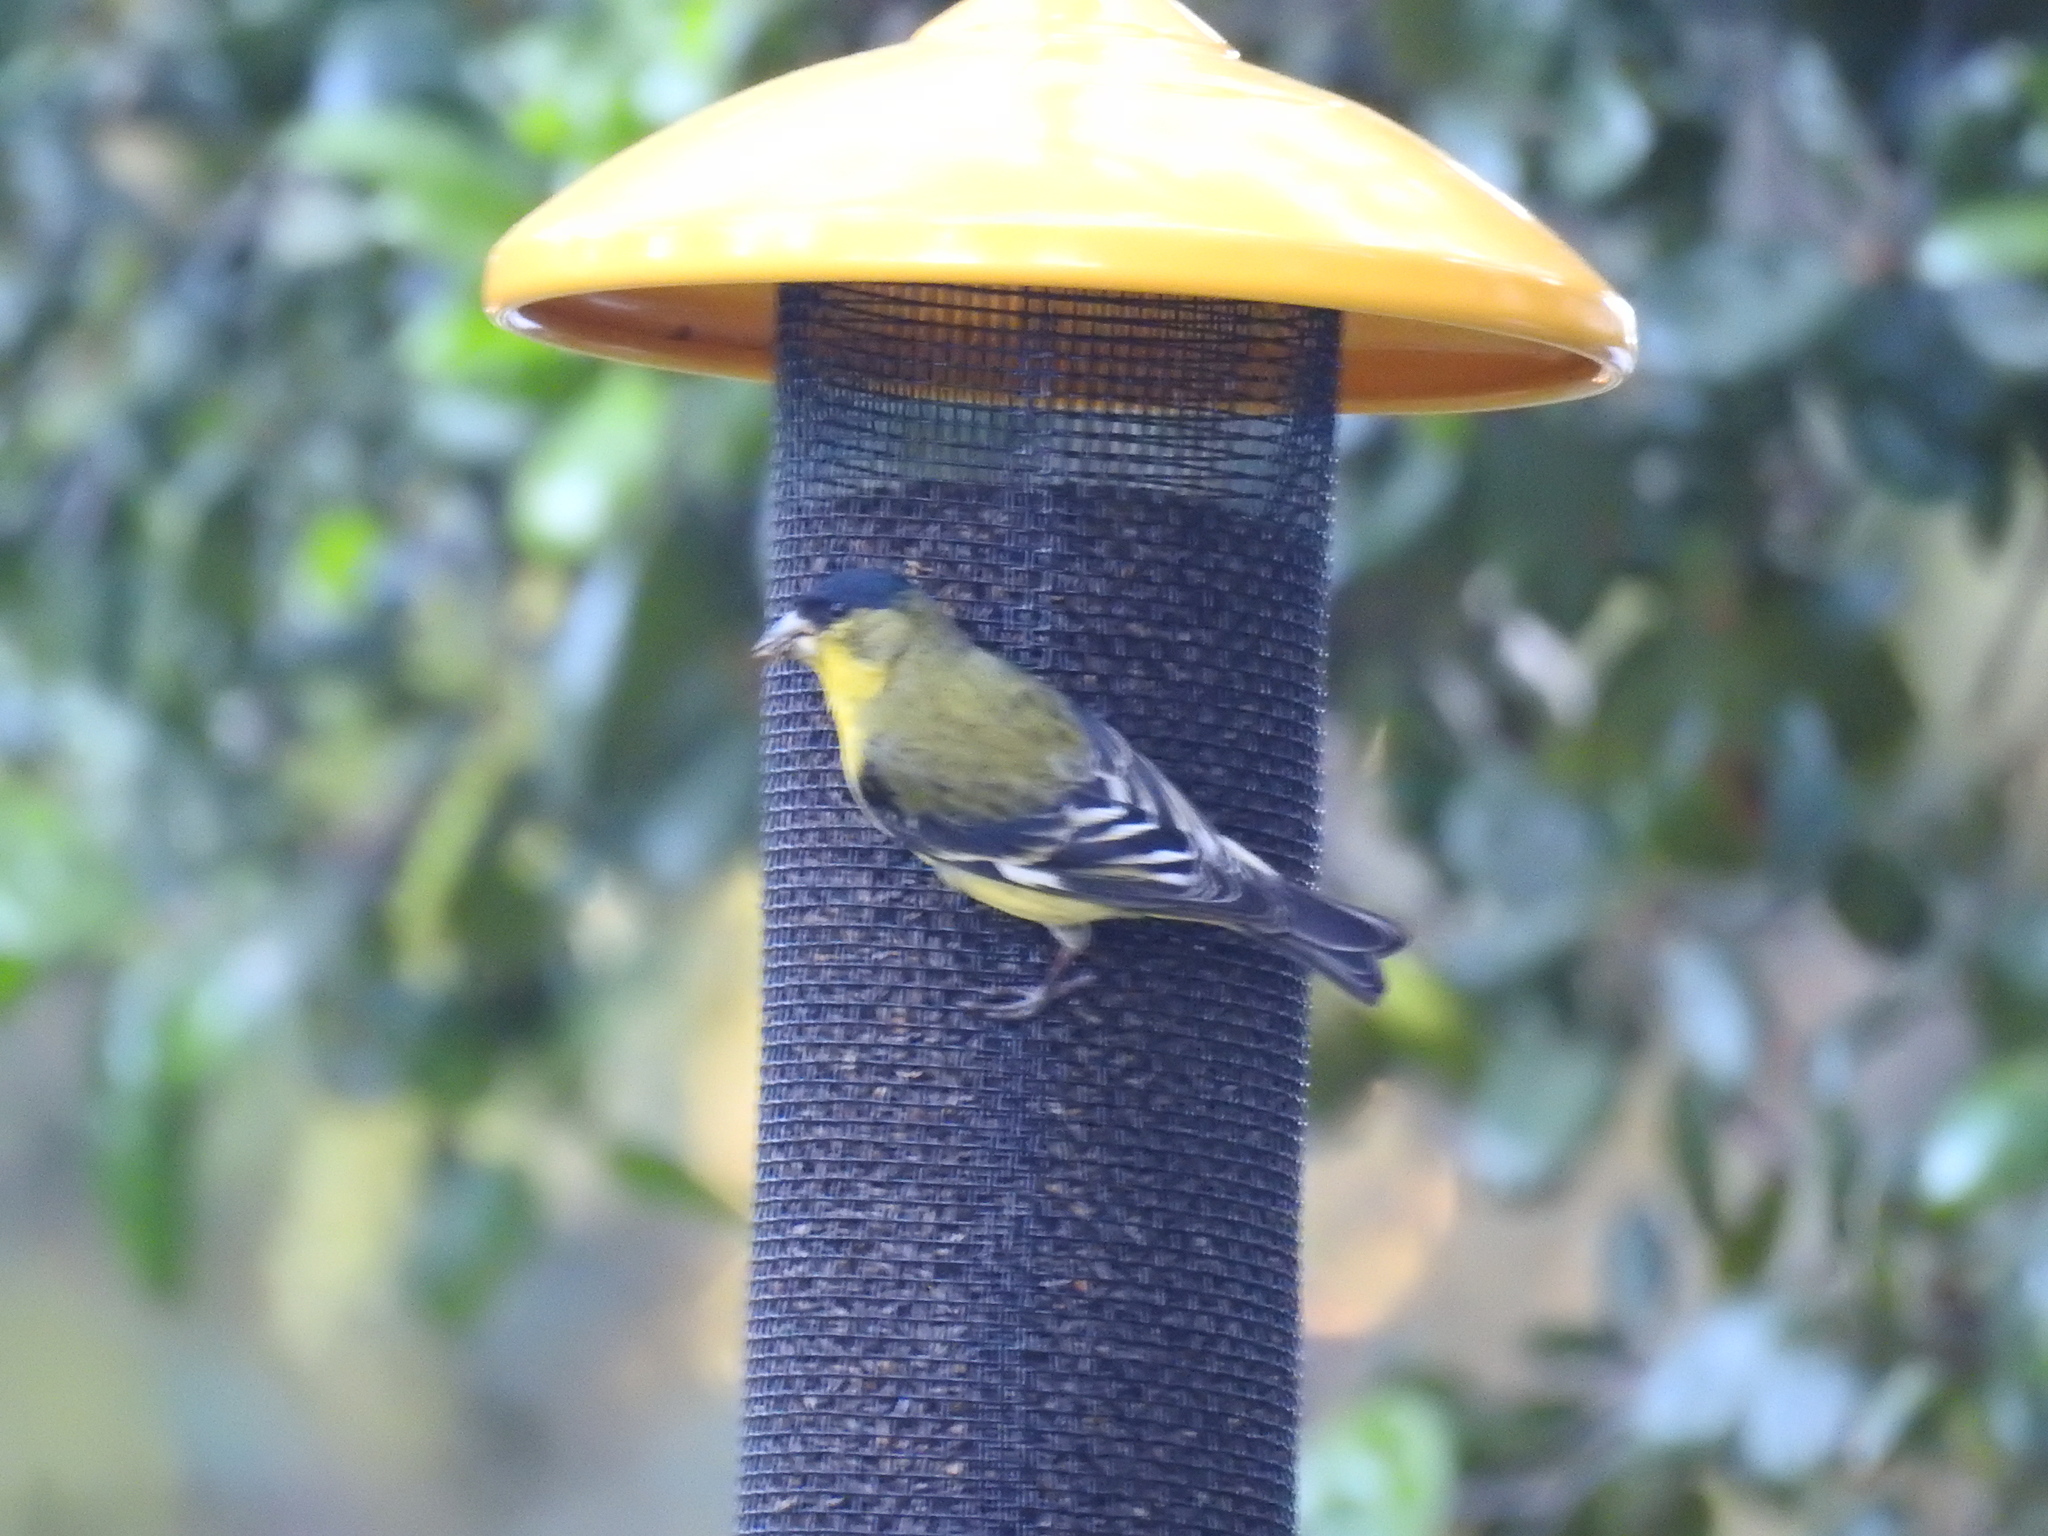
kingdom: Animalia
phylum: Chordata
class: Aves
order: Passeriformes
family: Fringillidae
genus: Spinus
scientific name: Spinus psaltria
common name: Lesser goldfinch
